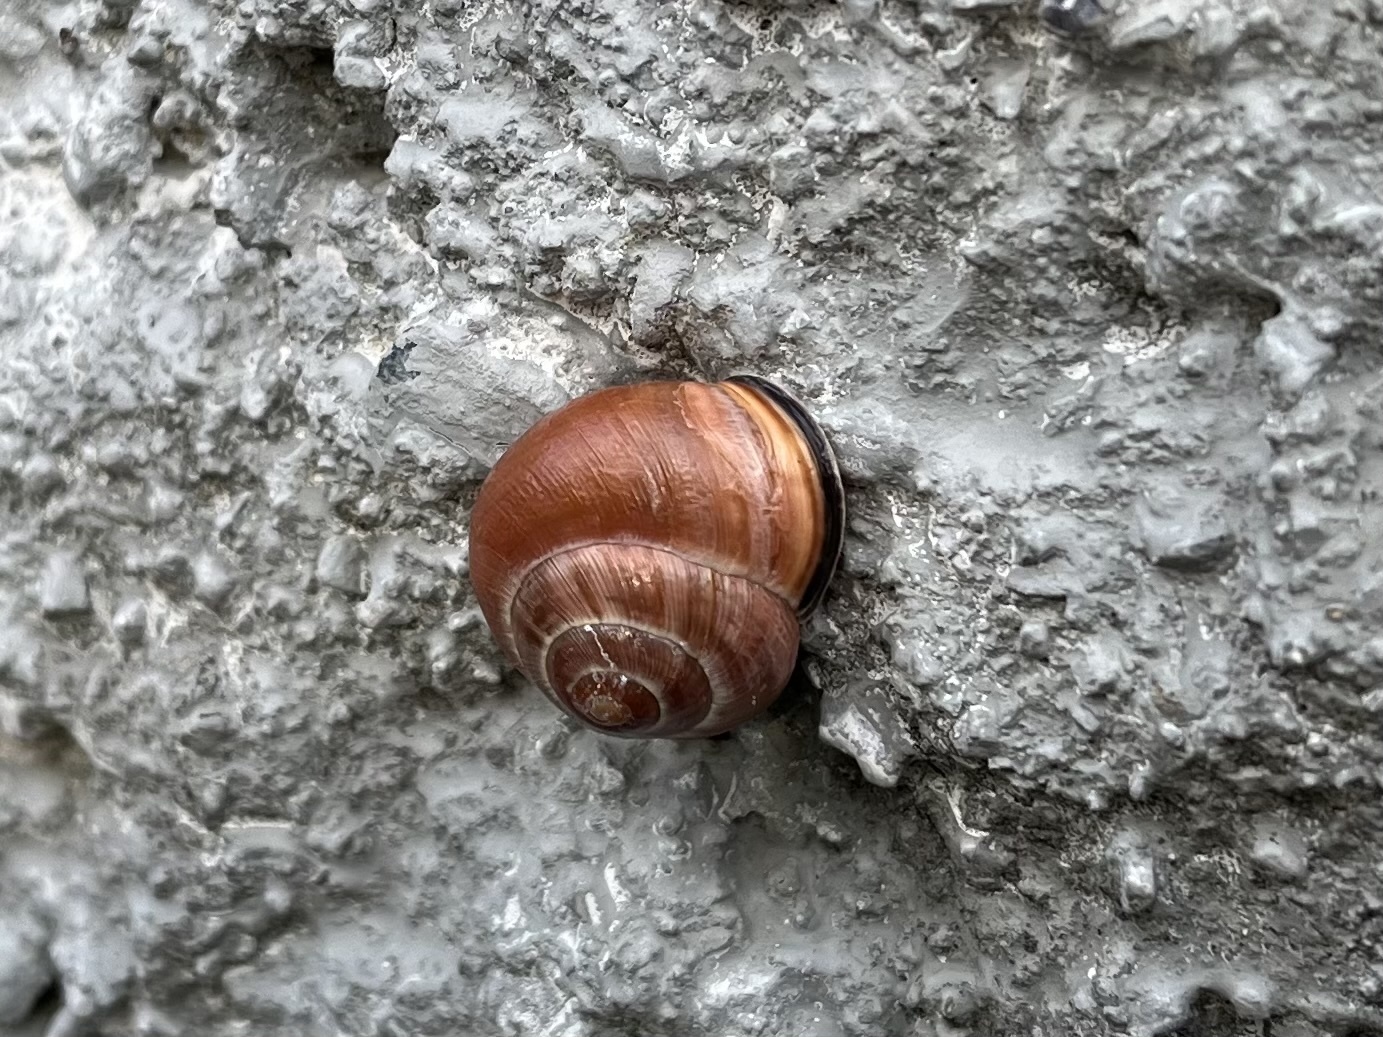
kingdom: Animalia
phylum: Mollusca
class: Gastropoda
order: Stylommatophora
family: Helicidae
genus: Cepaea
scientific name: Cepaea nemoralis
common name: Grovesnail
